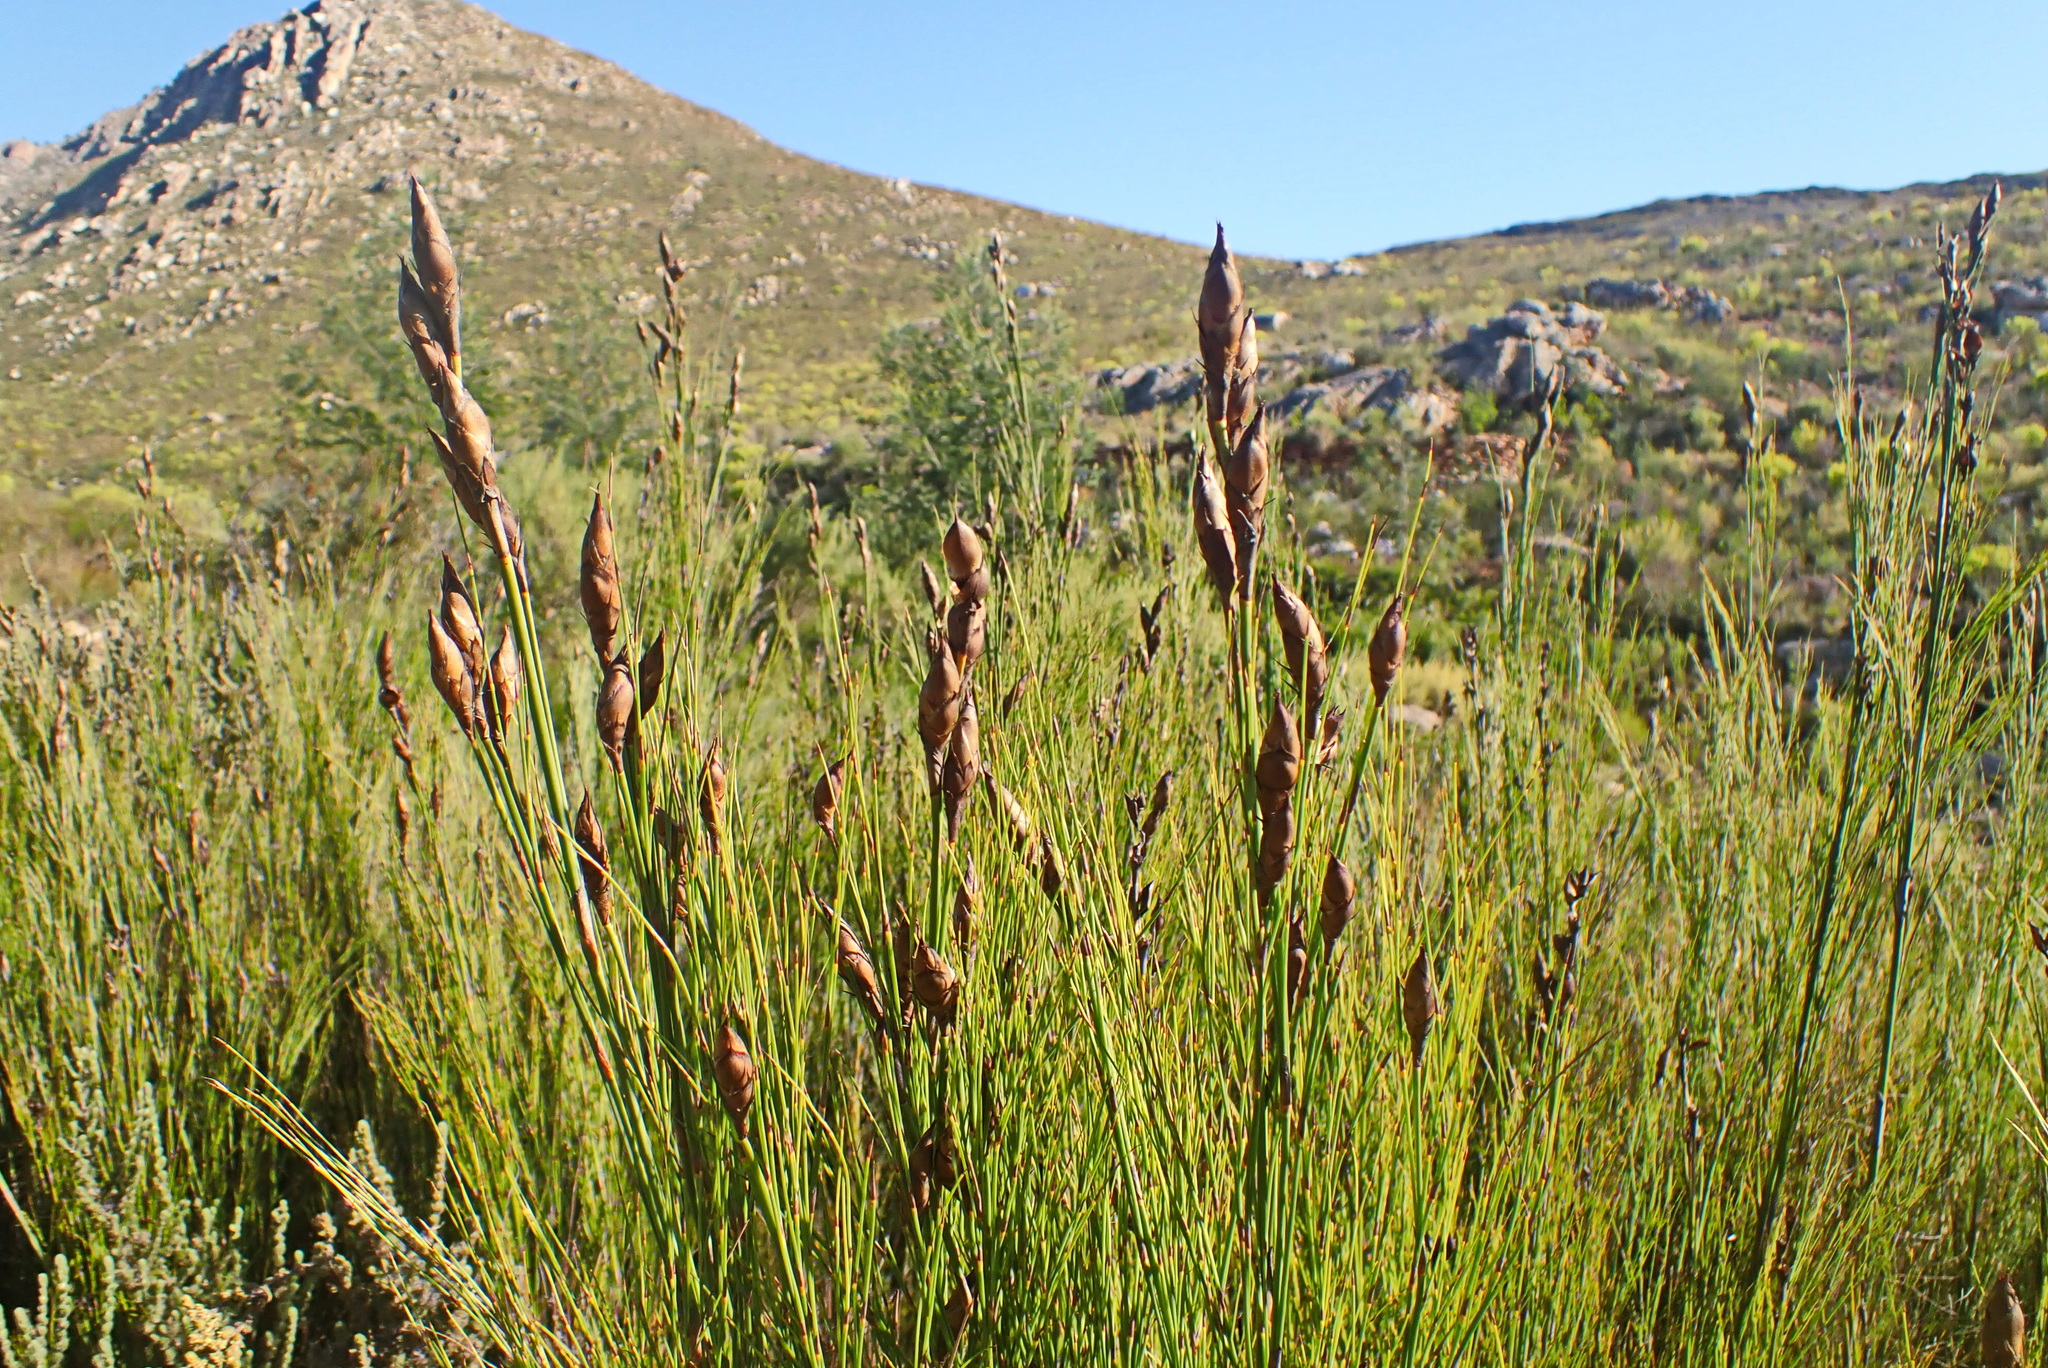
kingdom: Plantae
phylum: Tracheophyta
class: Liliopsida
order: Poales
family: Restionaceae
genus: Cannomois
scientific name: Cannomois virgata
